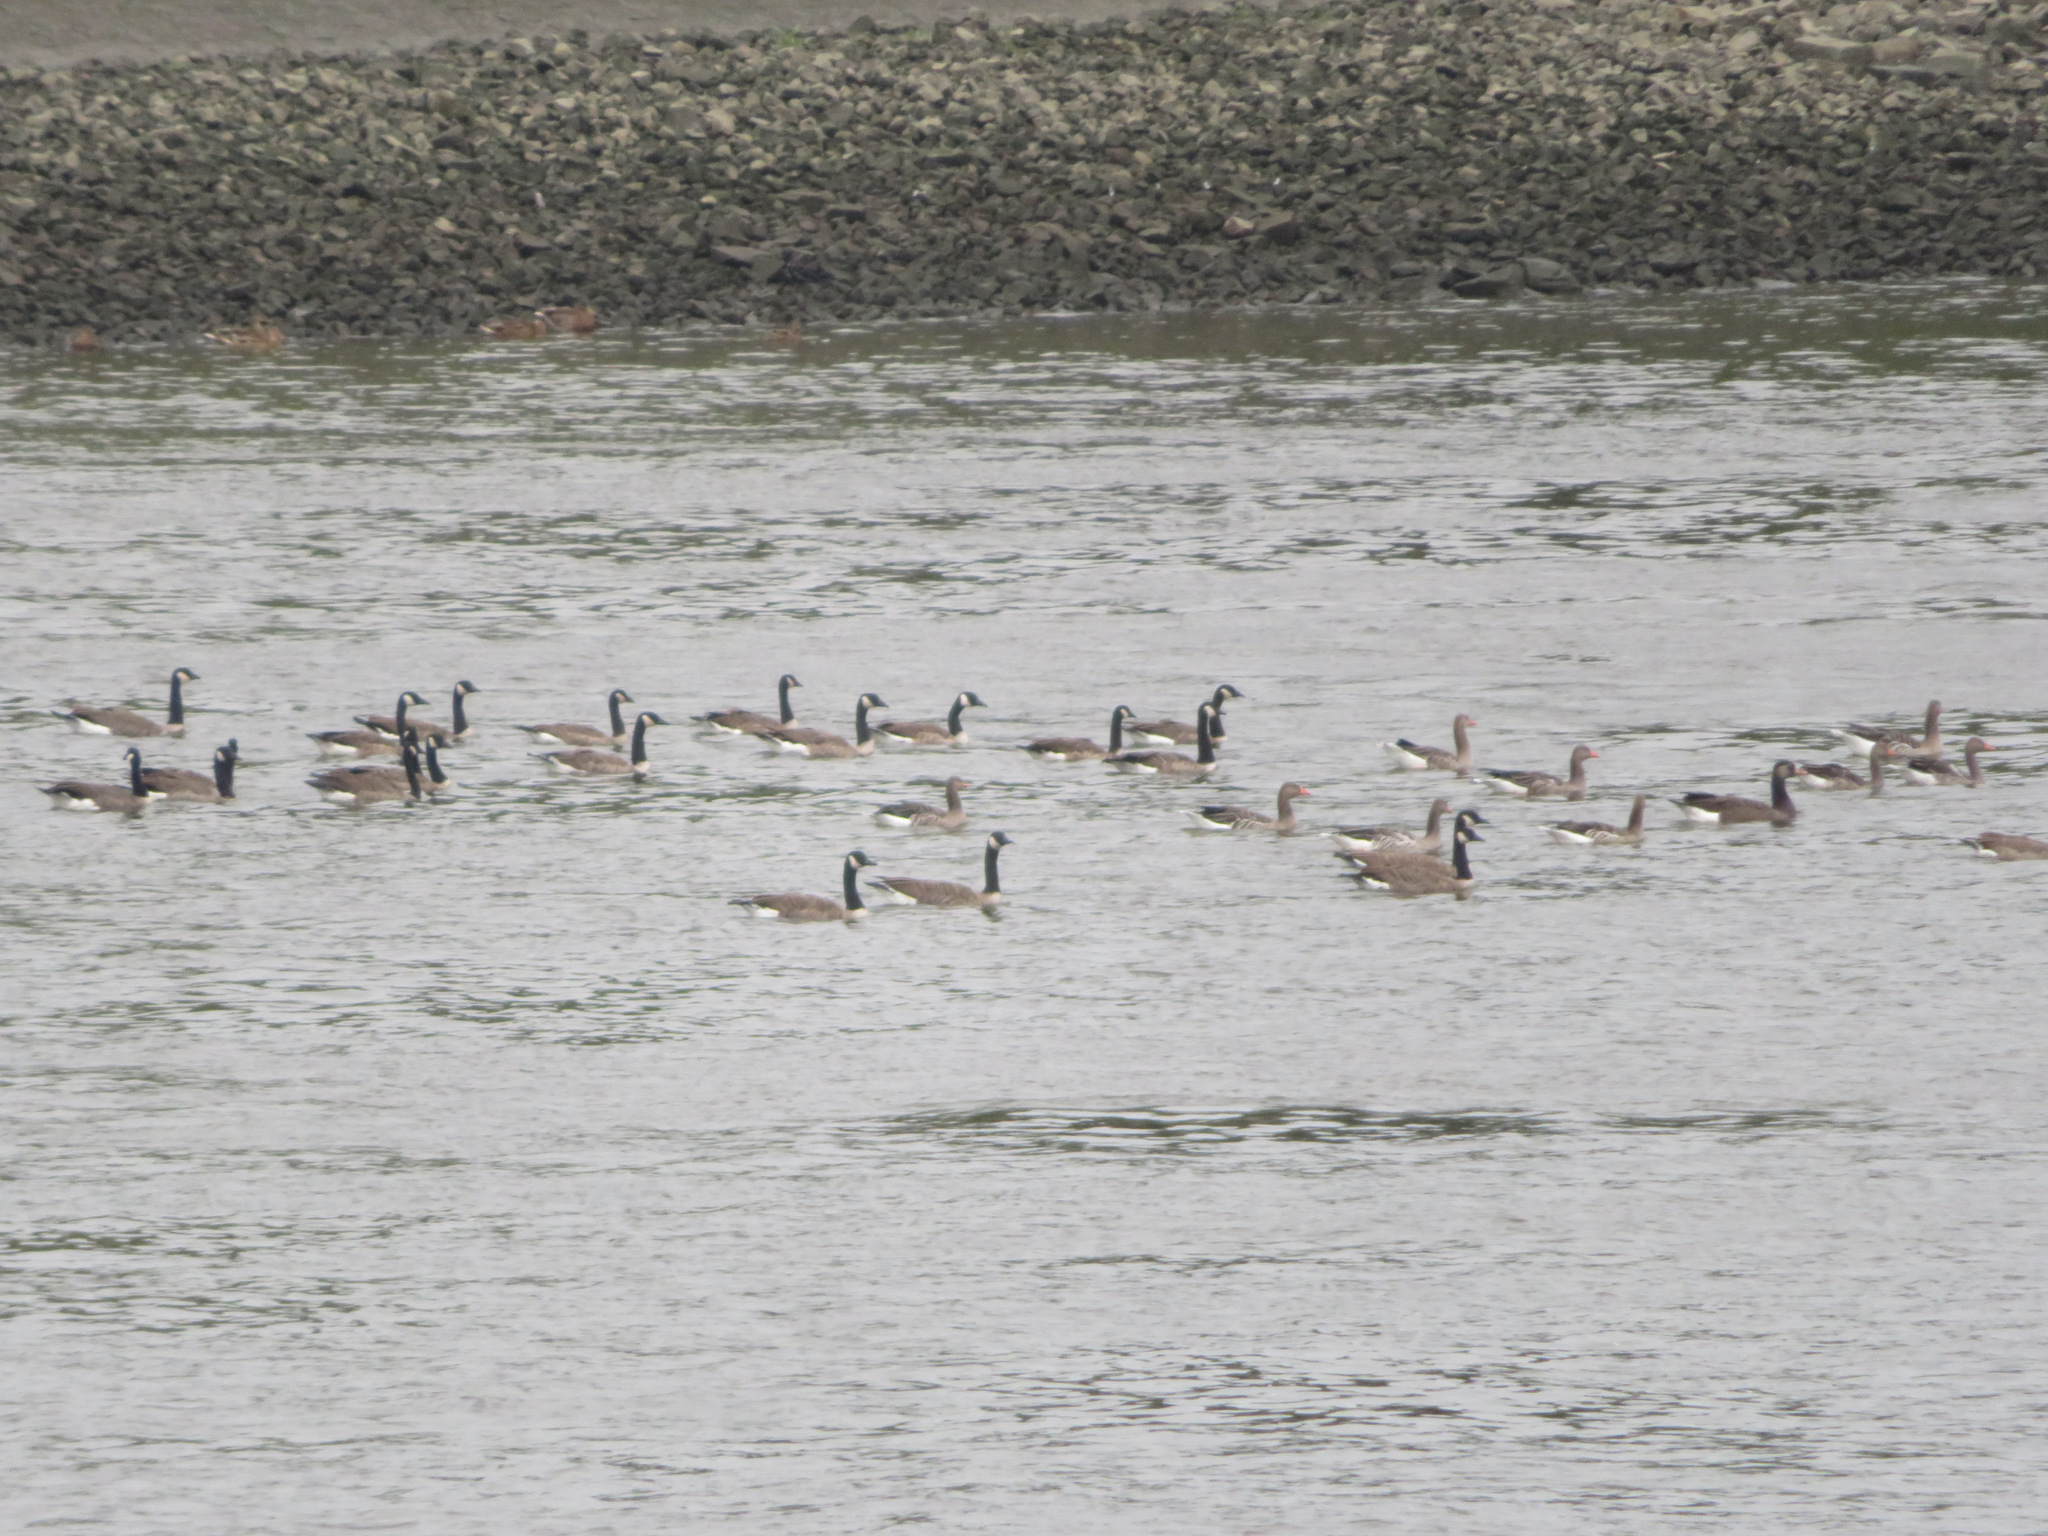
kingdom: Animalia
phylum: Chordata
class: Aves
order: Anseriformes
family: Anatidae
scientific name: Anatidae
